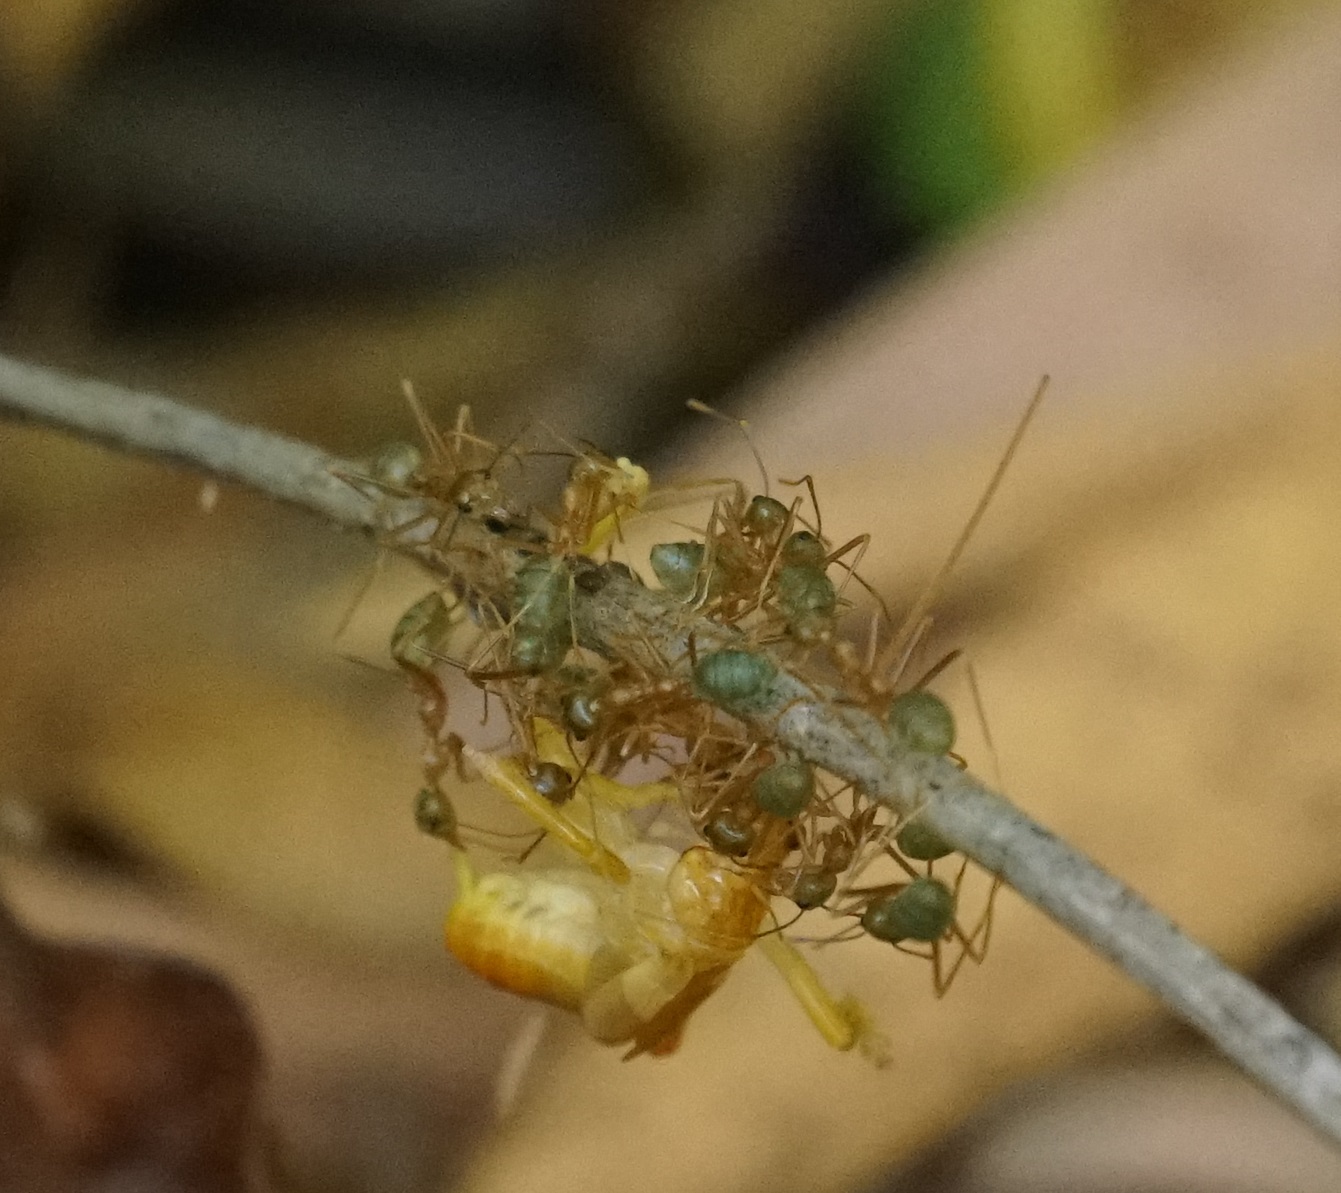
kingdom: Animalia
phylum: Arthropoda
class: Insecta
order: Hymenoptera
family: Formicidae
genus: Oecophylla
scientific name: Oecophylla smaragdina
